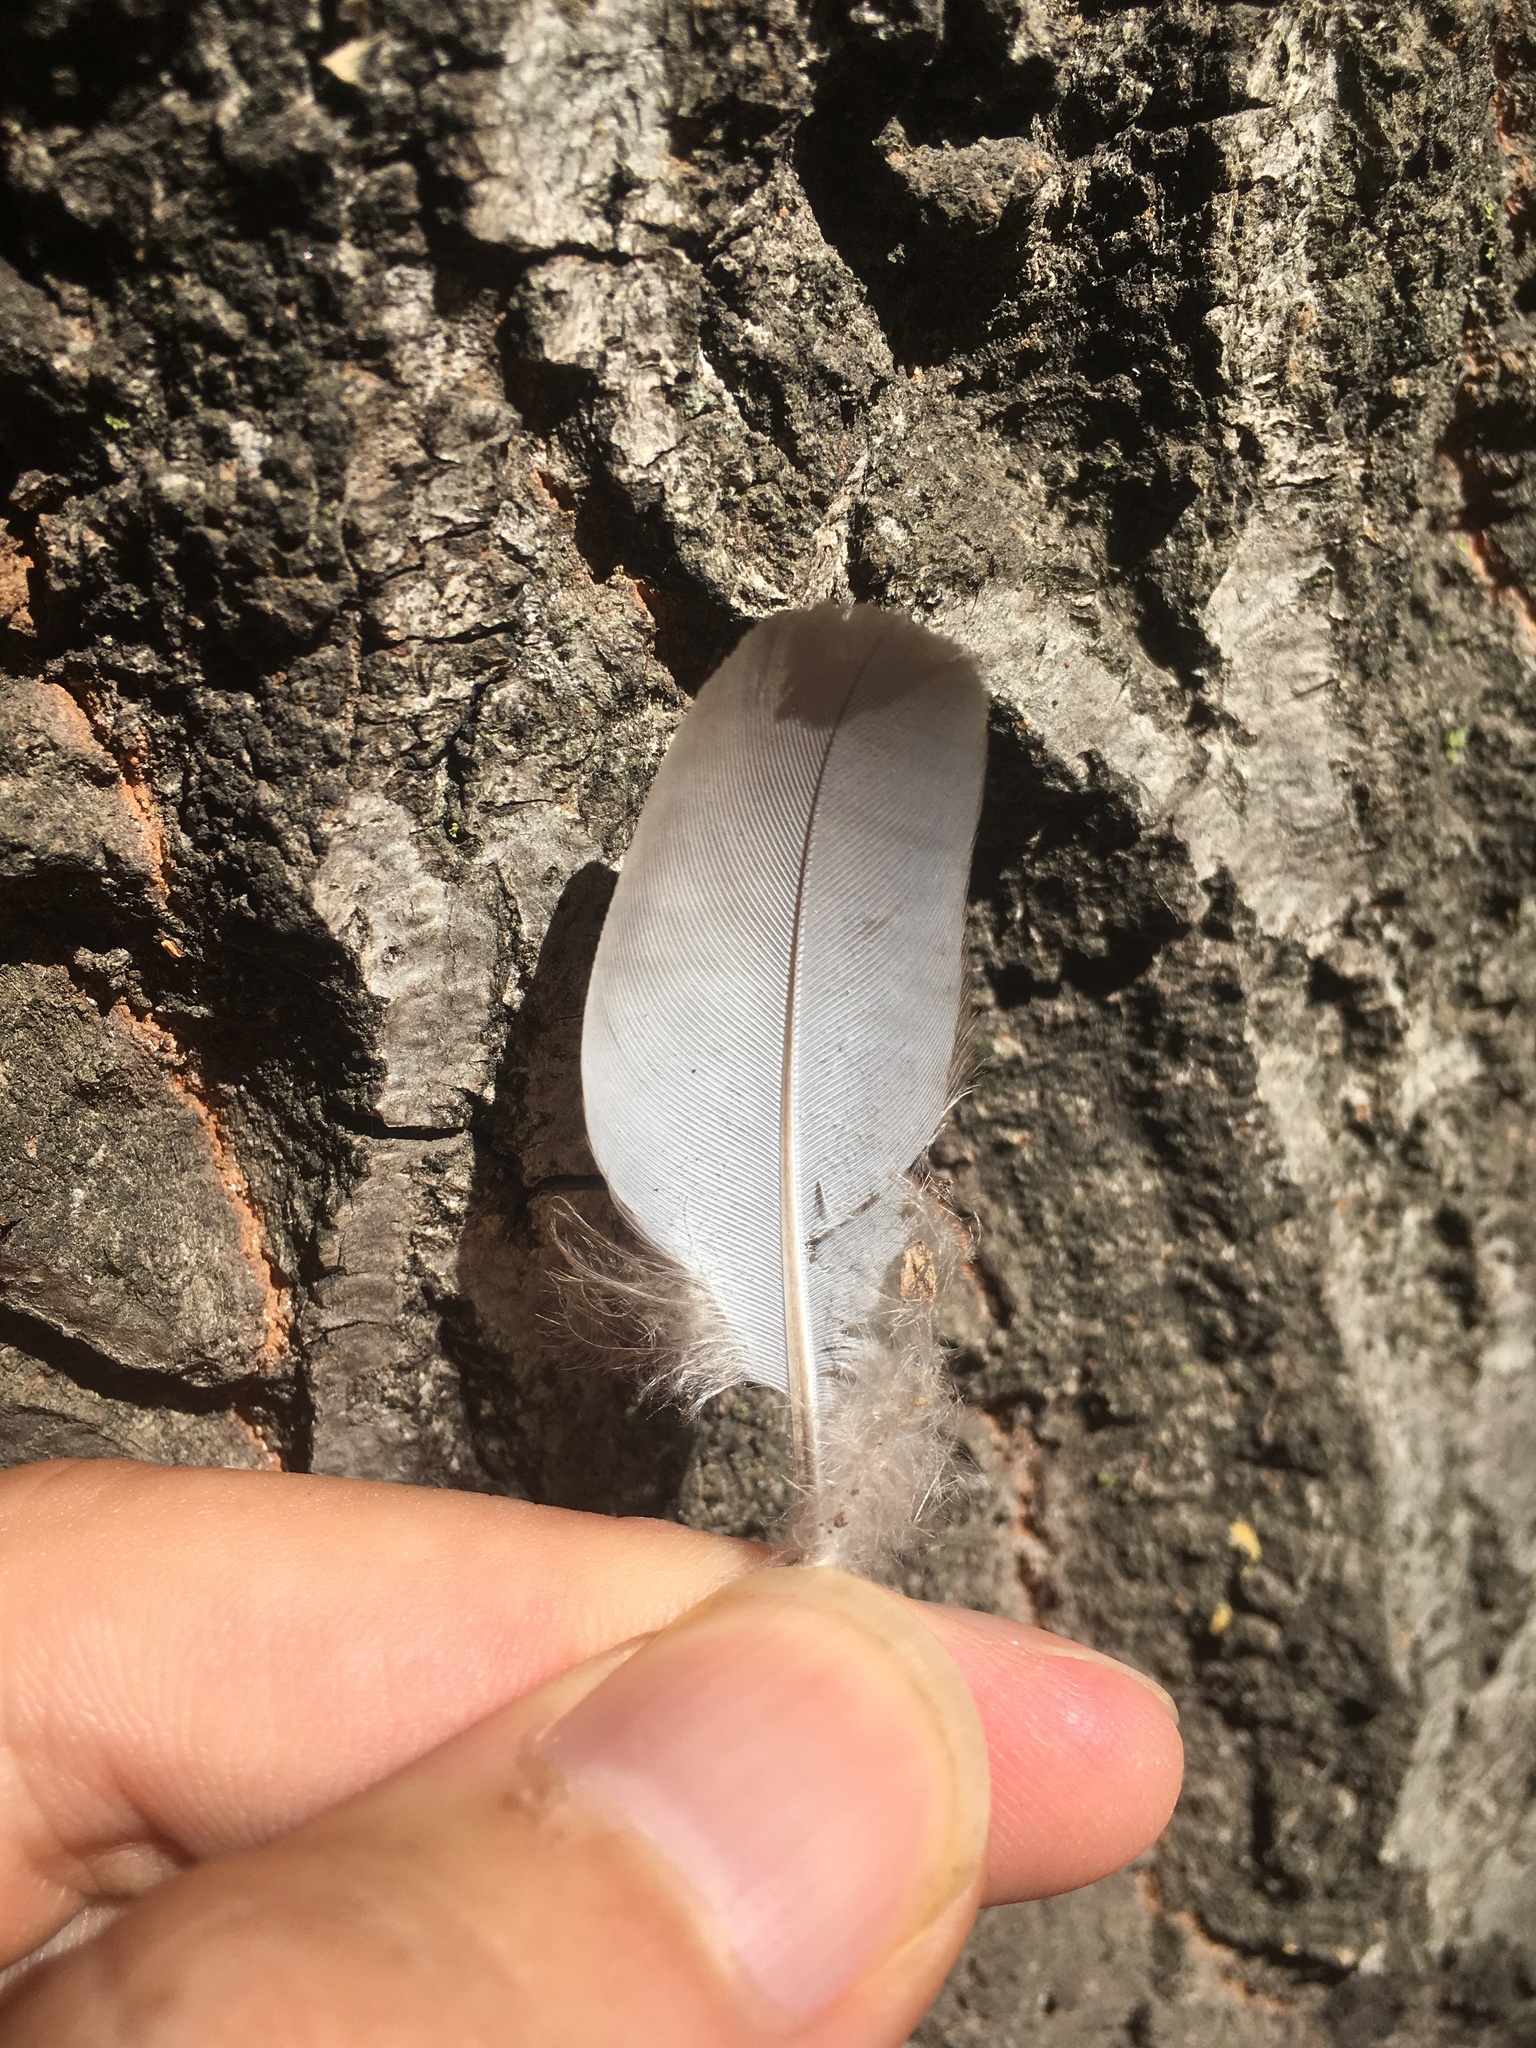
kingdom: Animalia
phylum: Chordata
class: Aves
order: Columbiformes
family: Columbidae
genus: Zenaida
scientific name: Zenaida macroura
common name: Mourning dove
